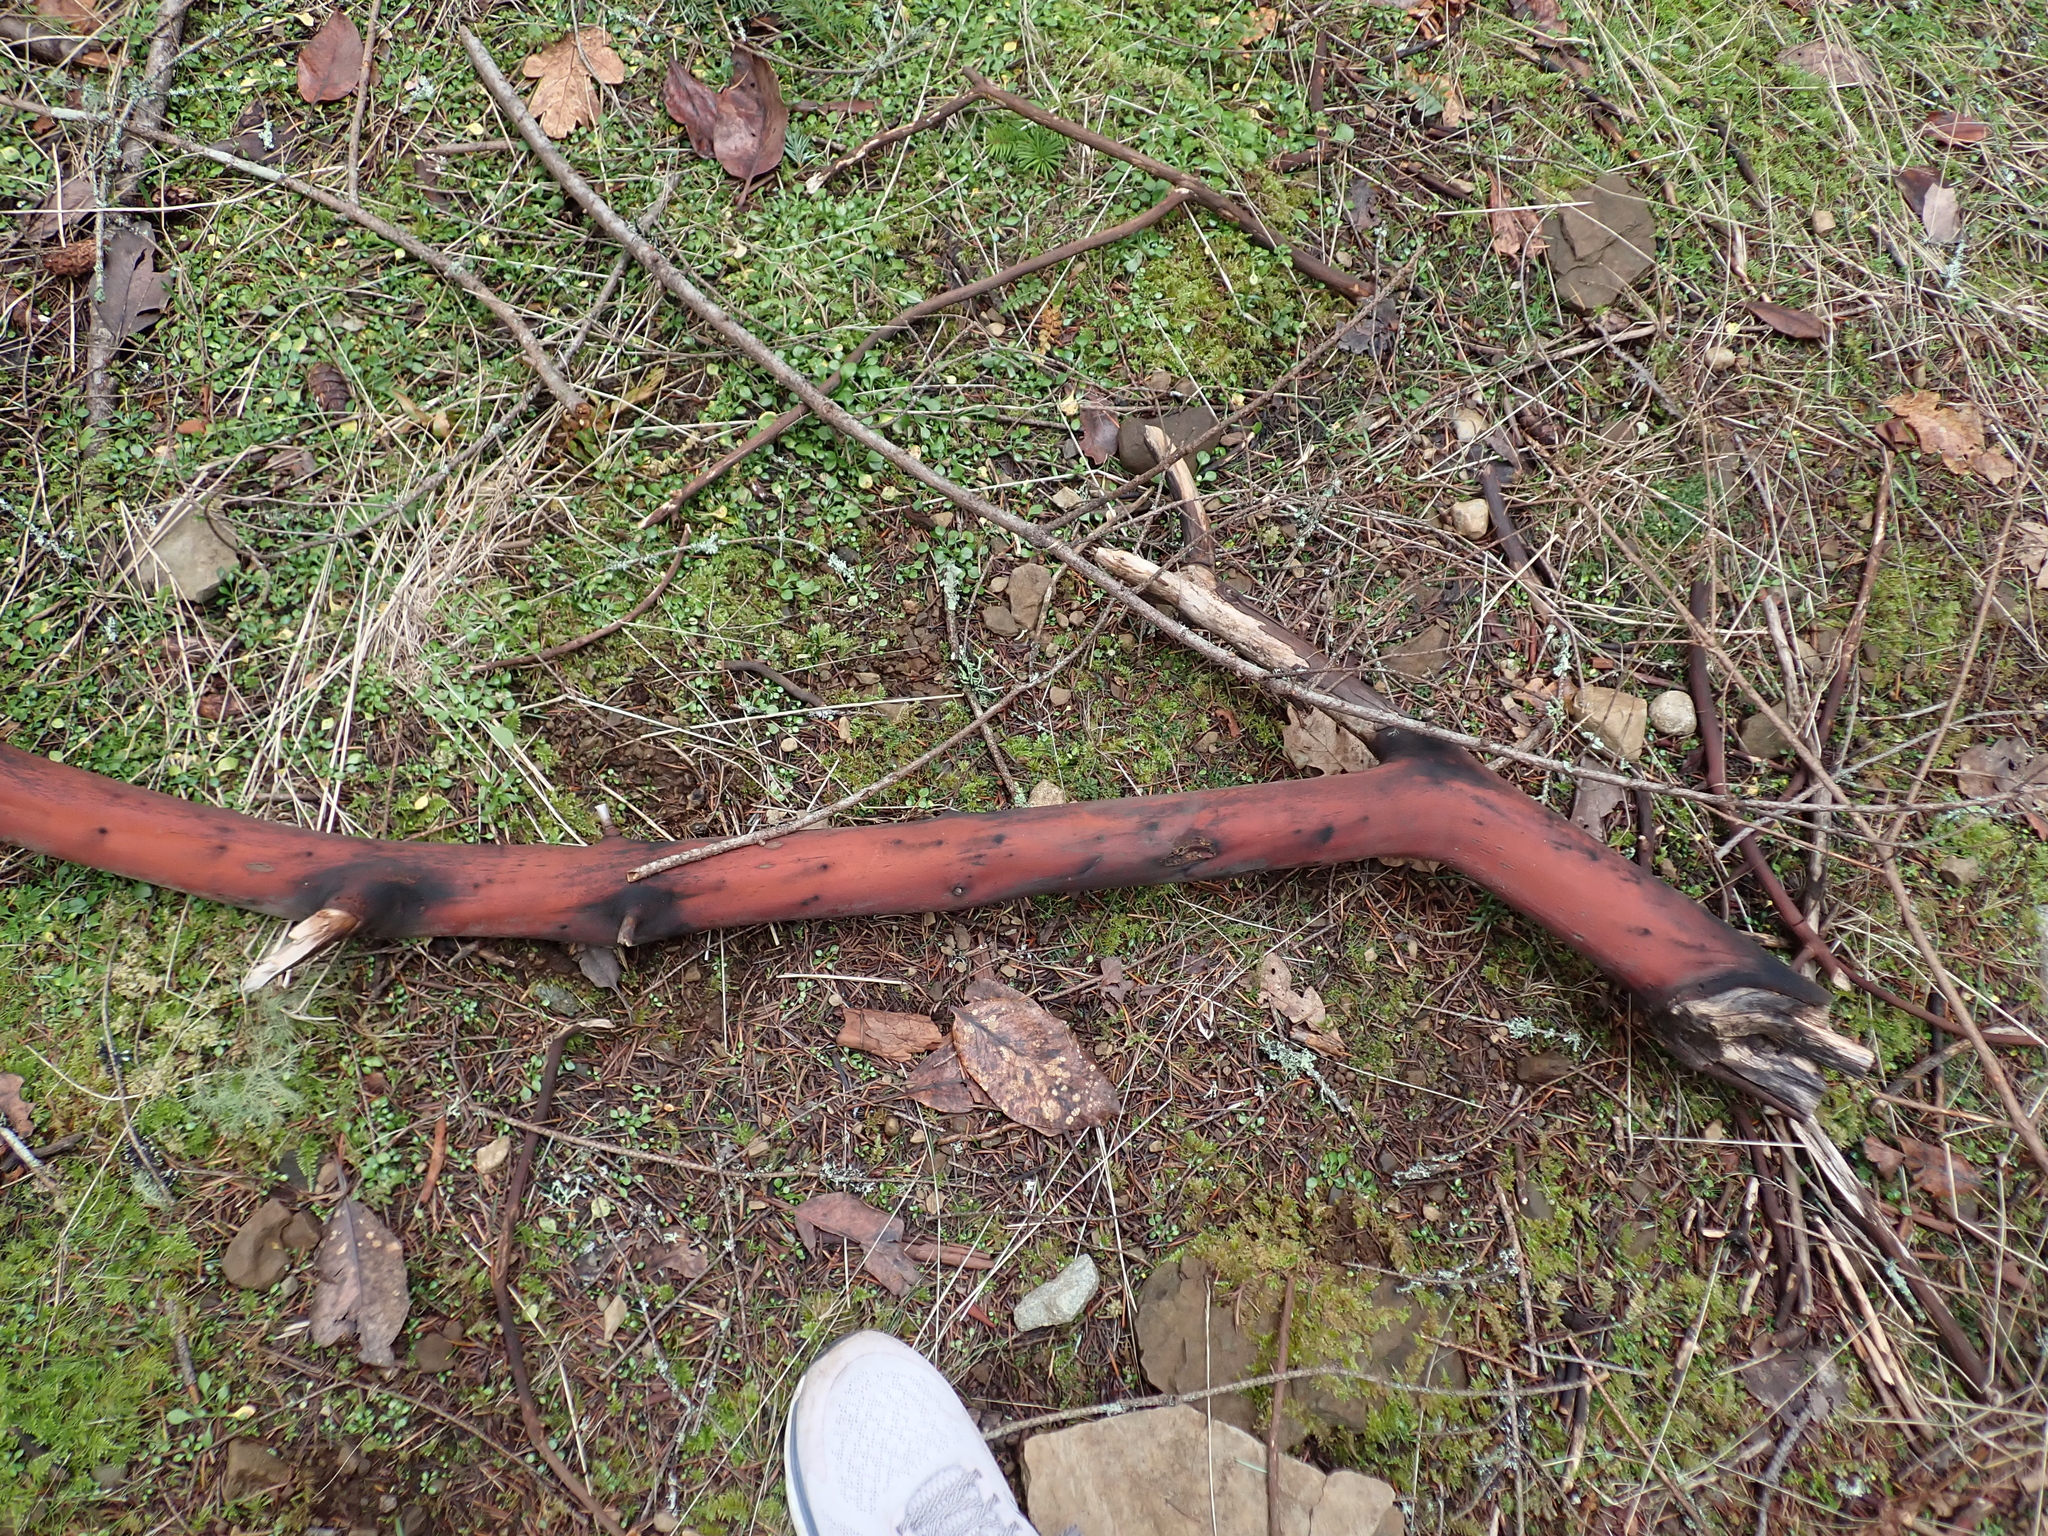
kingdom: Plantae
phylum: Tracheophyta
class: Magnoliopsida
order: Ericales
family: Ericaceae
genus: Arbutus
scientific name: Arbutus menziesii
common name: Pacific madrone
